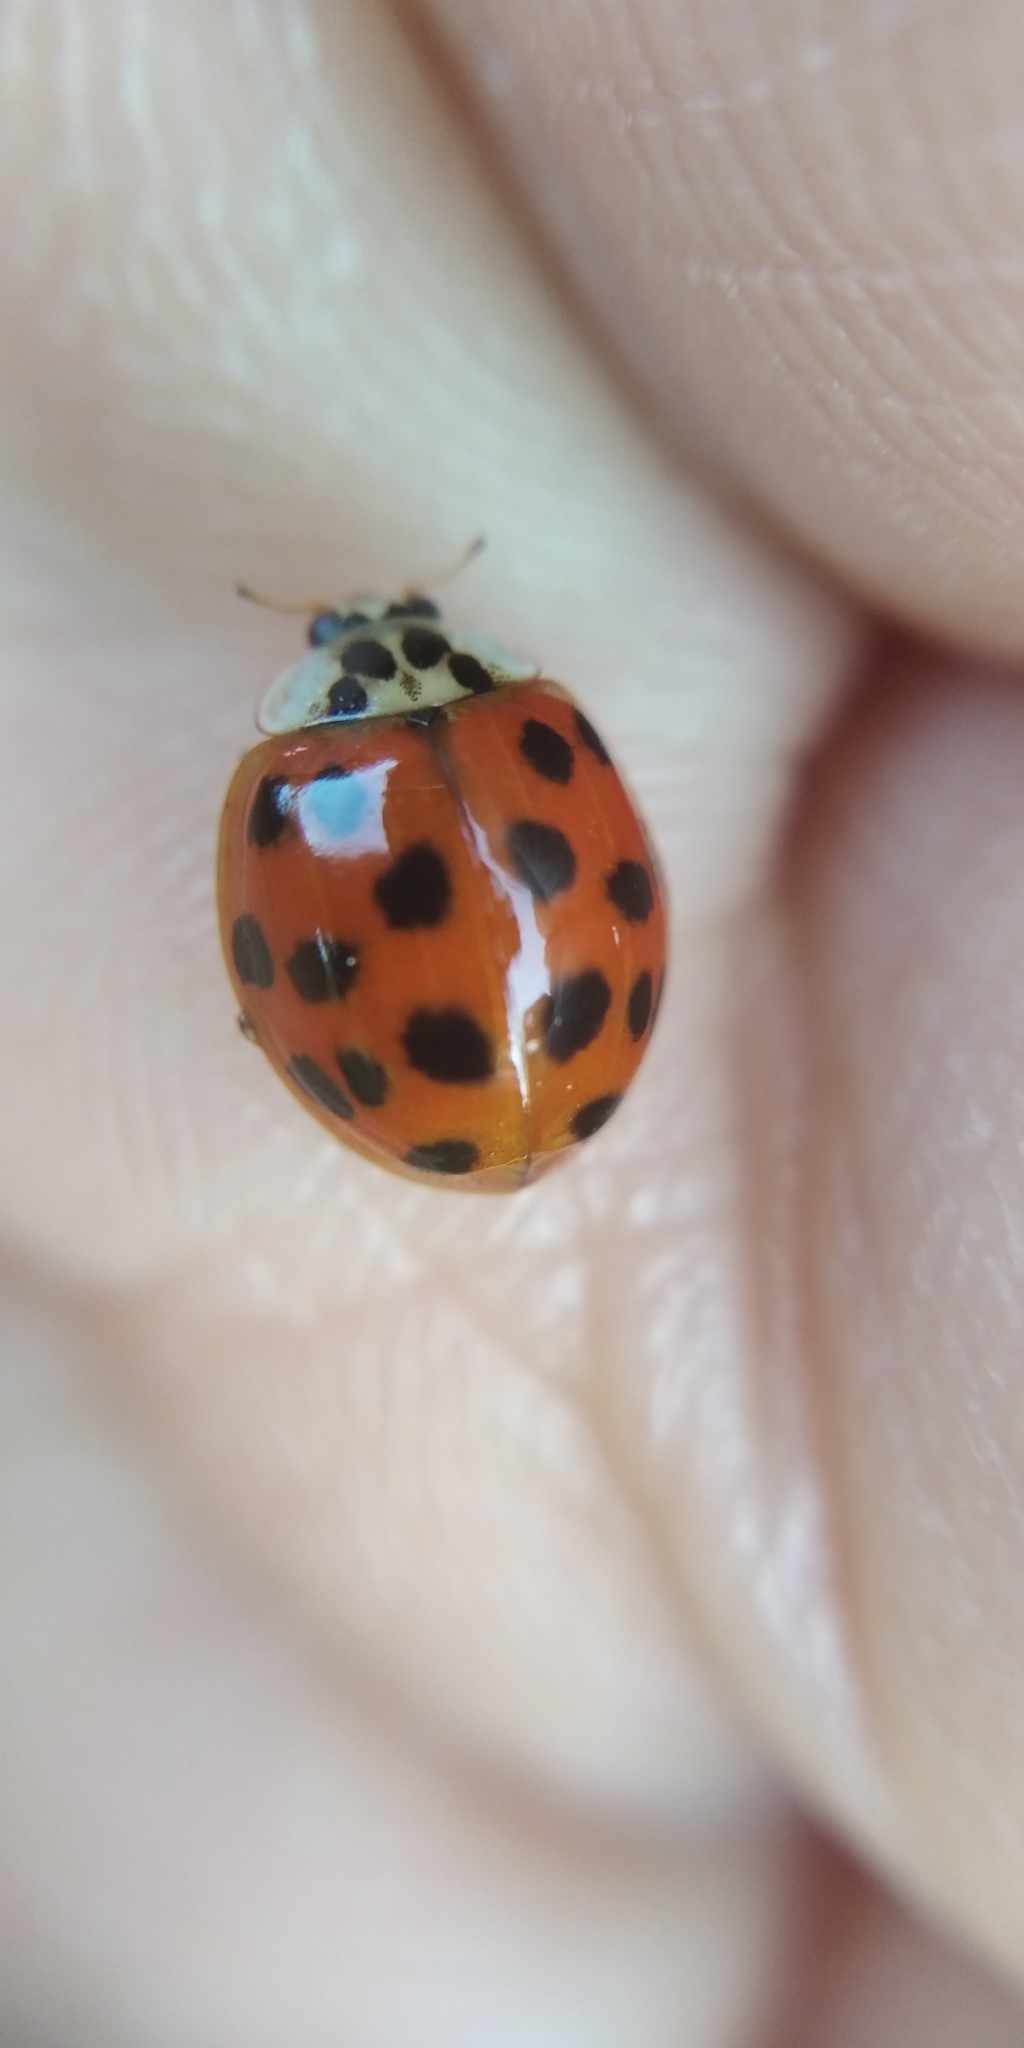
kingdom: Animalia
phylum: Arthropoda
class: Insecta
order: Coleoptera
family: Coccinellidae
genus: Harmonia
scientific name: Harmonia axyridis
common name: Harlequin ladybird
